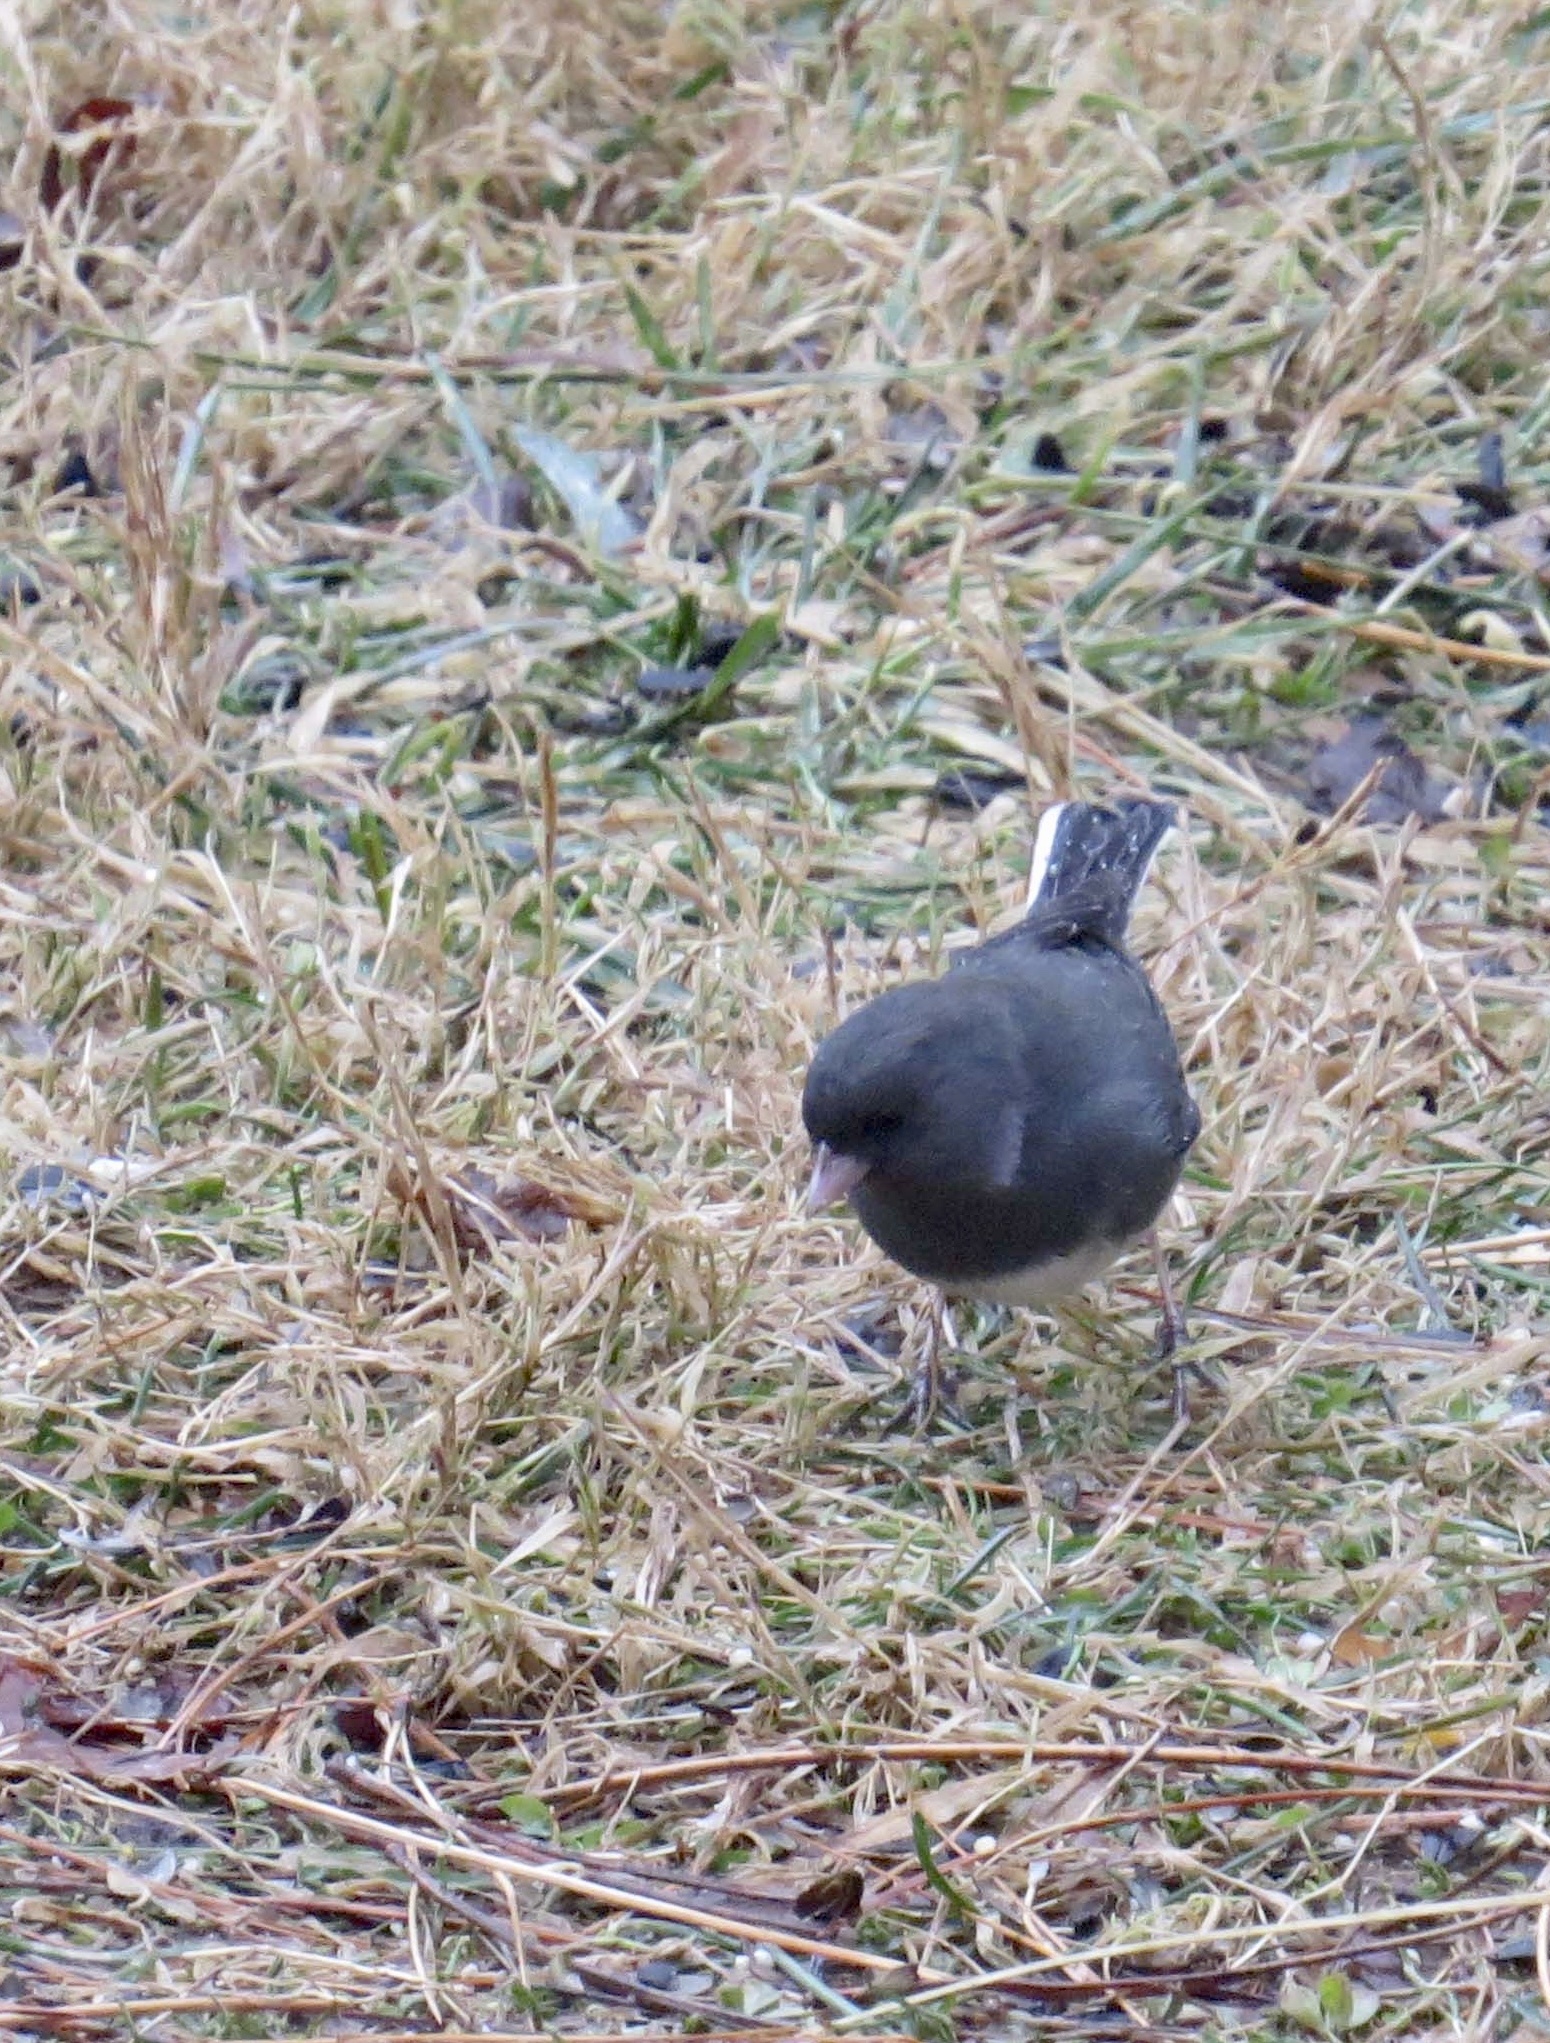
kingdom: Animalia
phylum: Chordata
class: Aves
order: Passeriformes
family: Passerellidae
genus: Junco
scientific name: Junco hyemalis
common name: Dark-eyed junco
